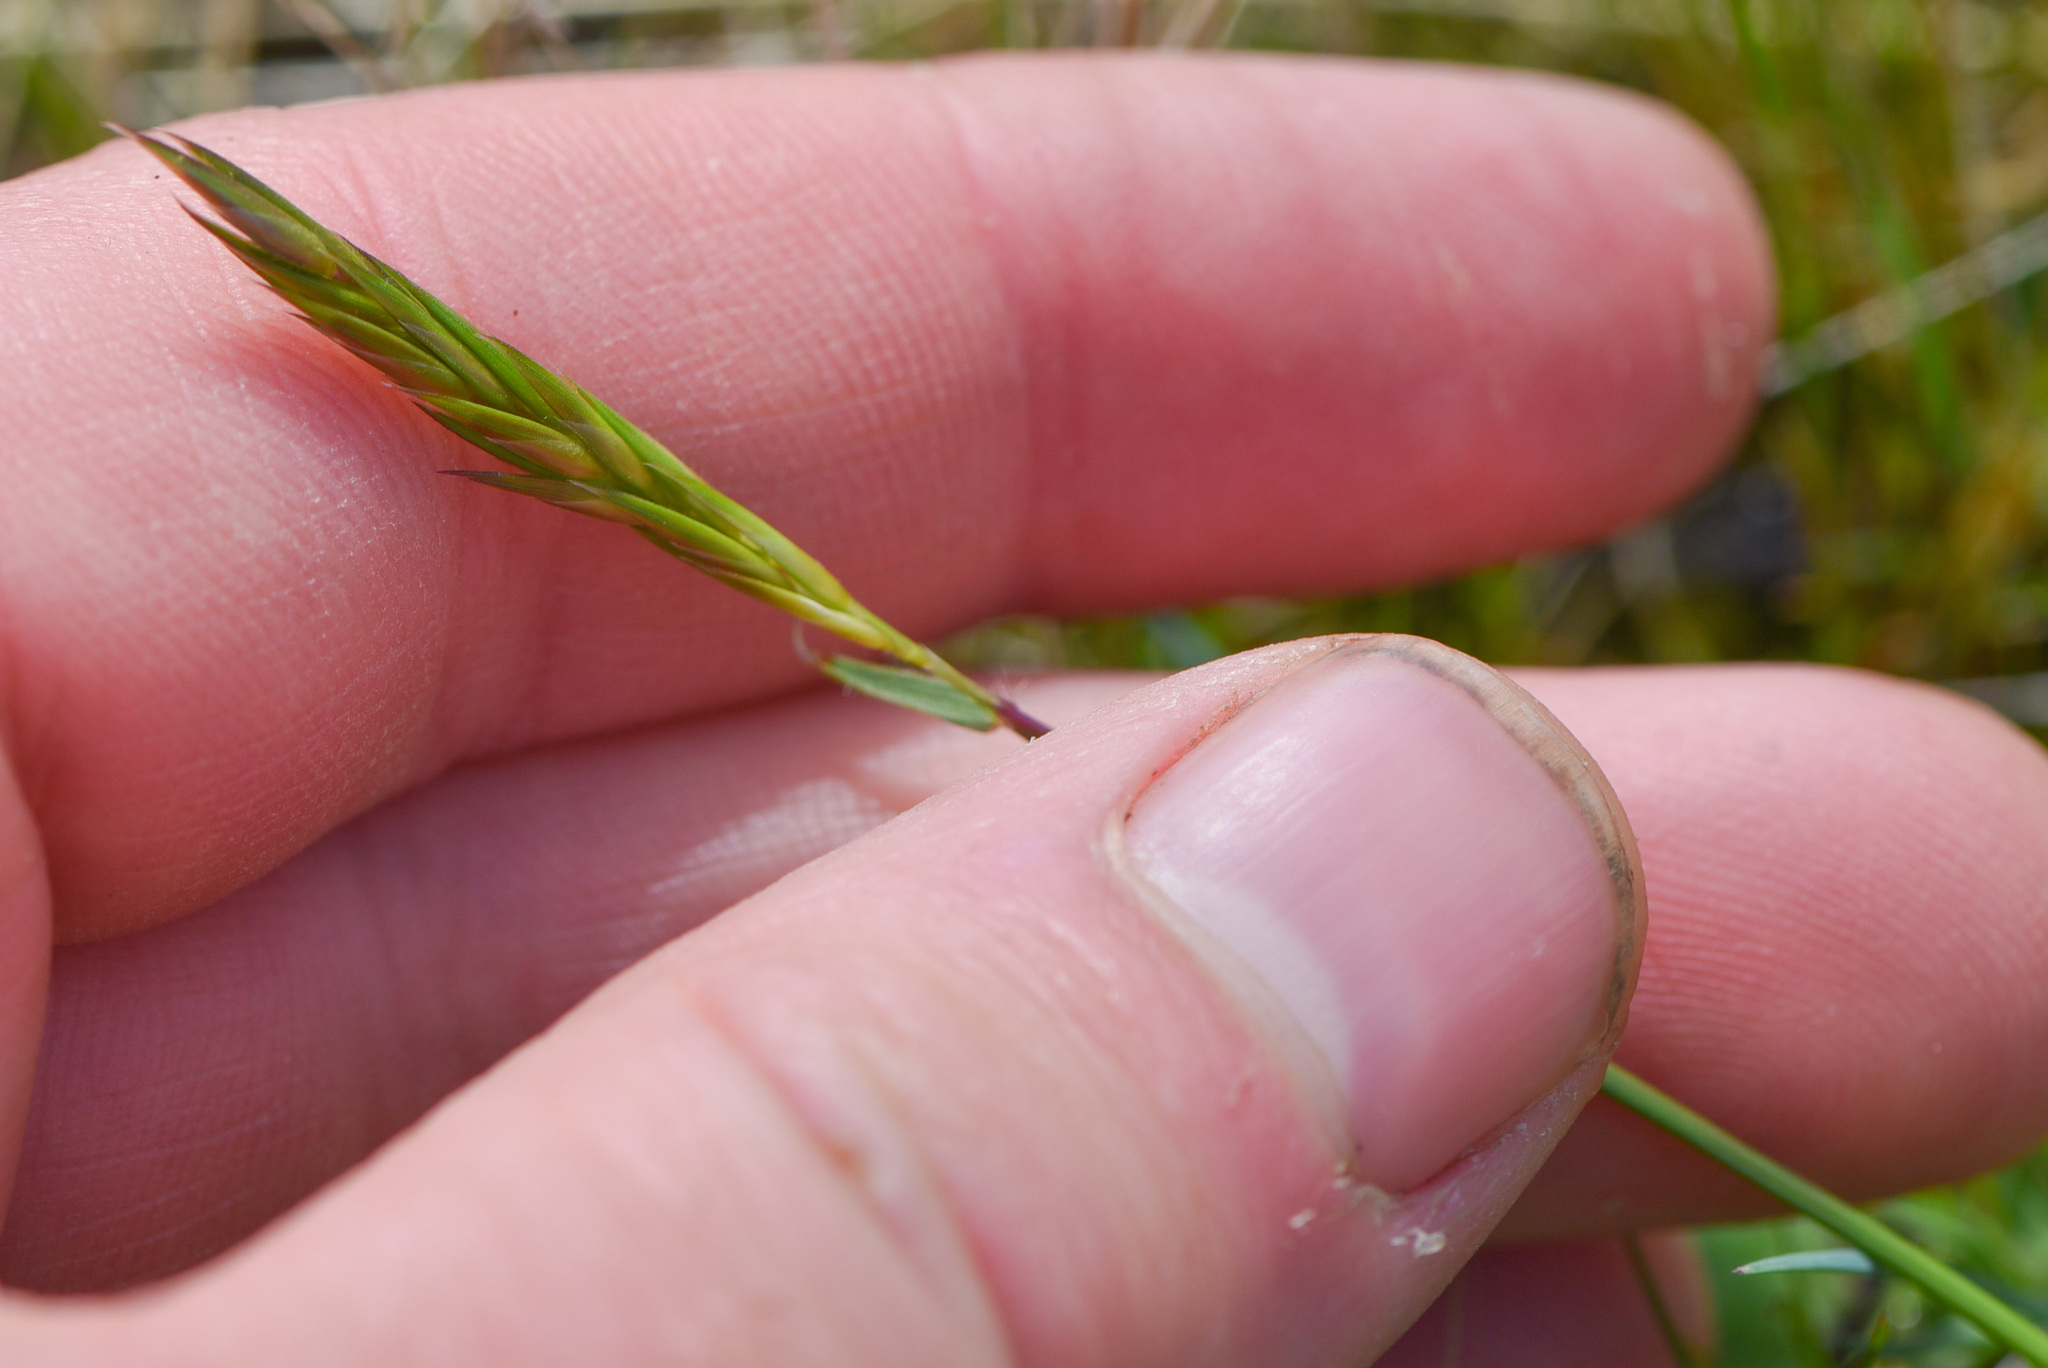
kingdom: Plantae
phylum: Tracheophyta
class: Liliopsida
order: Poales
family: Poaceae
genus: Anthoxanthum
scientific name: Anthoxanthum odoratum
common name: Sweet vernalgrass
